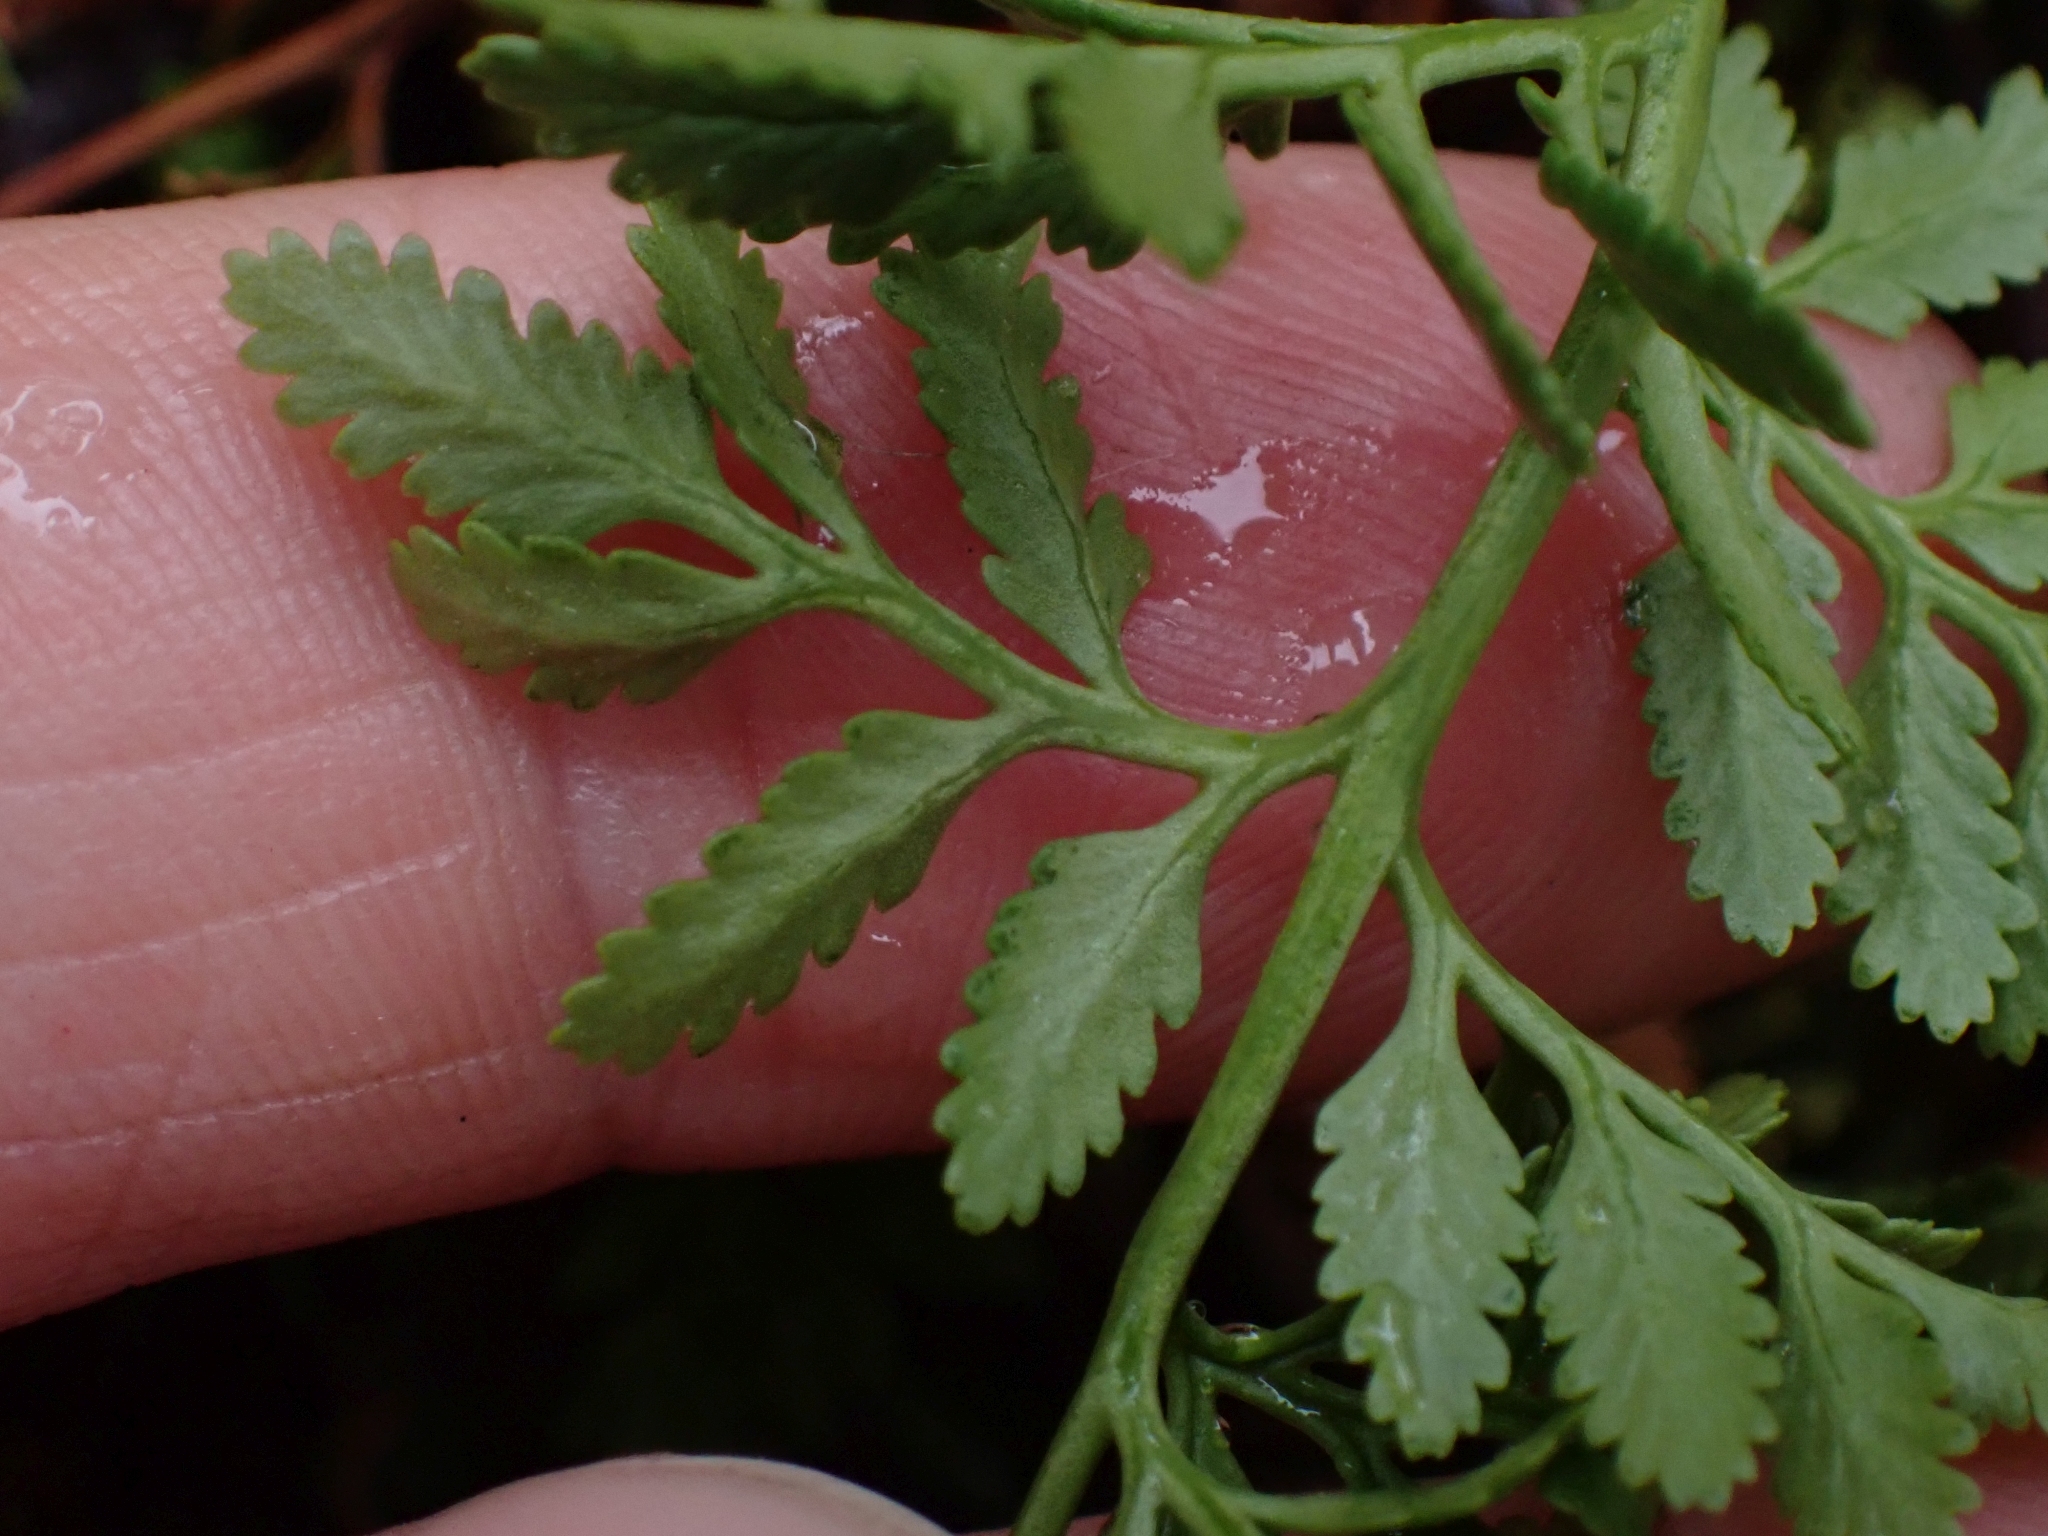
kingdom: Plantae
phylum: Tracheophyta
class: Polypodiopsida
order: Polypodiales
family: Pteridaceae
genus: Cryptogramma
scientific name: Cryptogramma acrostichoides
